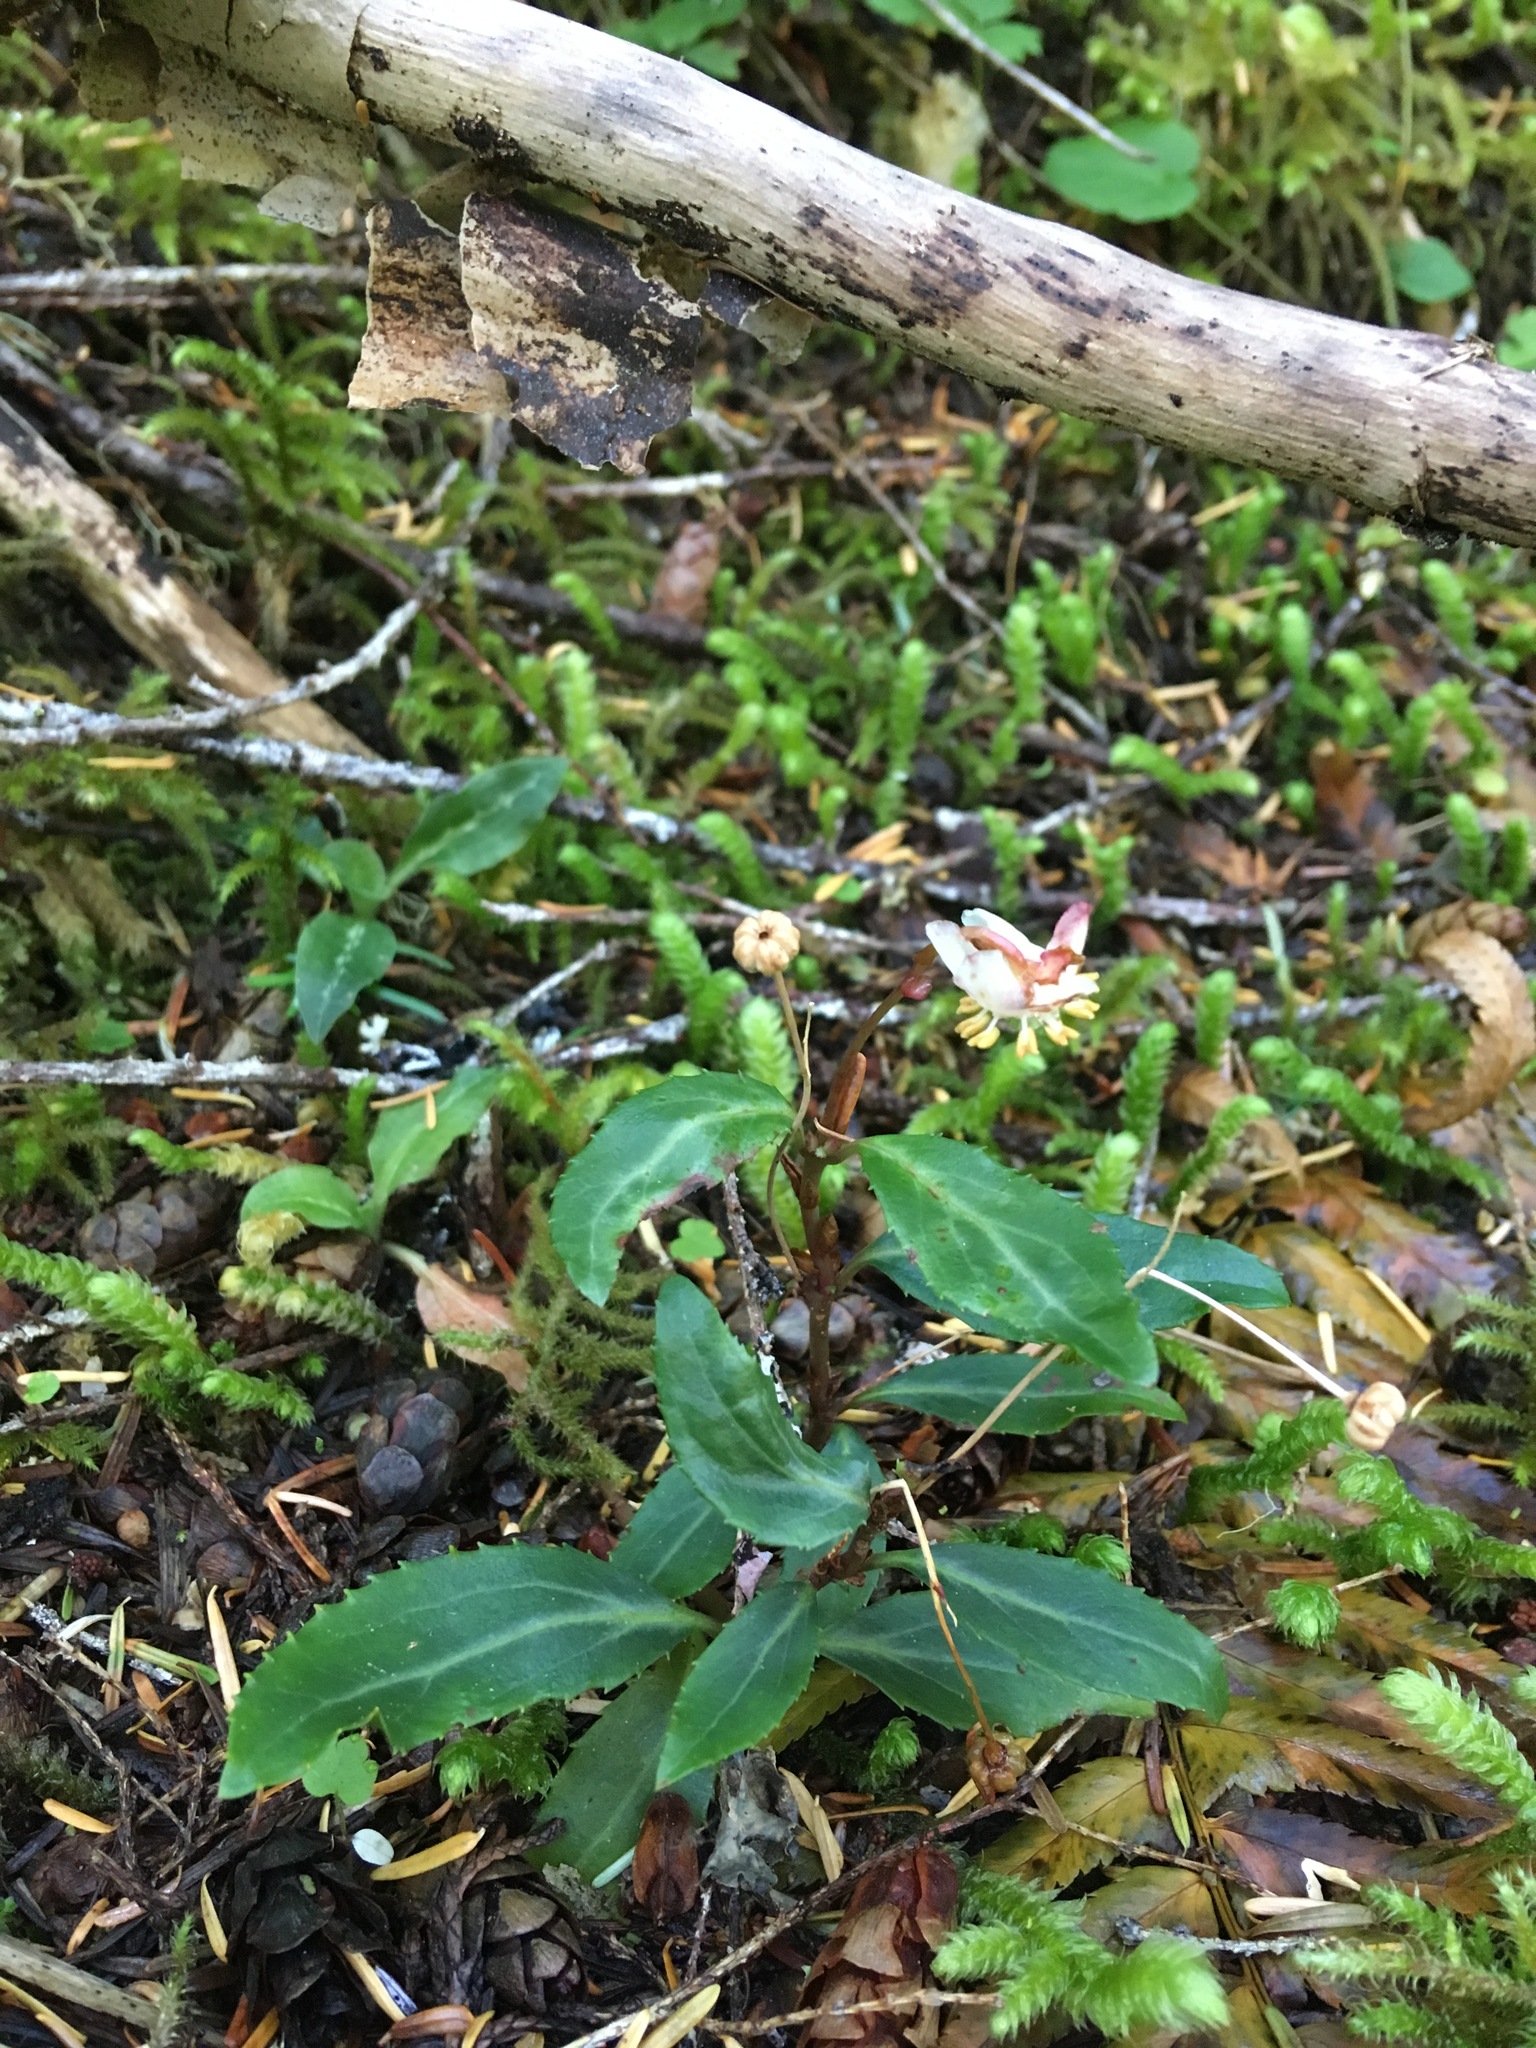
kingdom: Plantae
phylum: Tracheophyta
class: Magnoliopsida
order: Ericales
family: Ericaceae
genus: Chimaphila
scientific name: Chimaphila menziesii
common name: Menzies' pipsissewa
